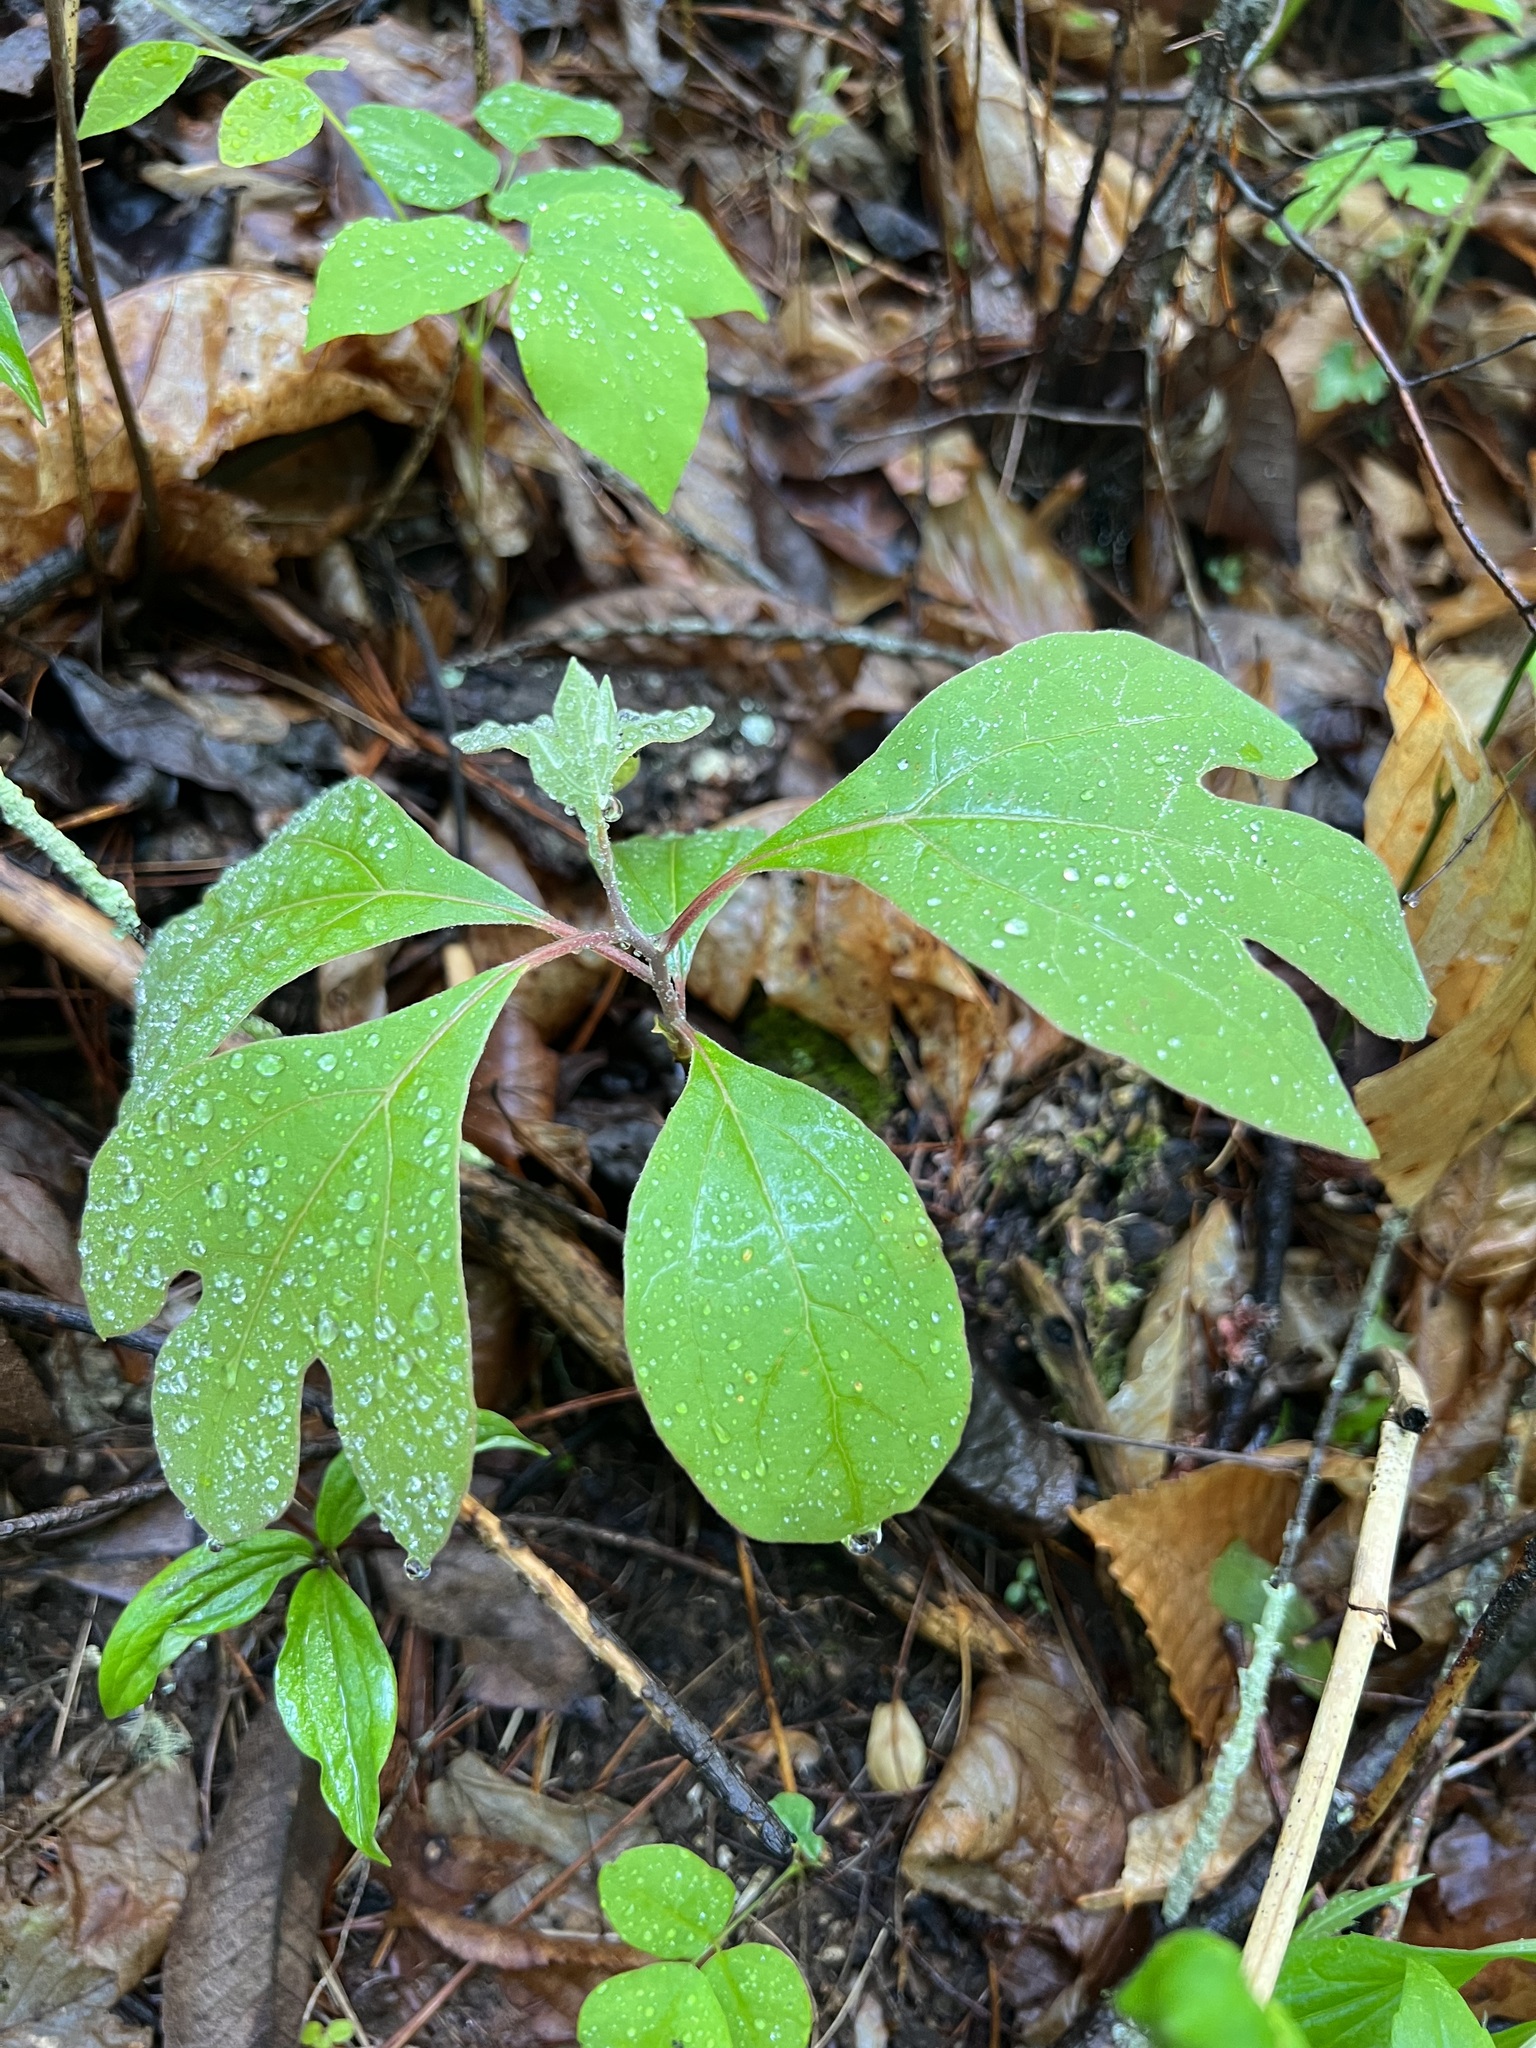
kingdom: Plantae
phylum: Tracheophyta
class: Magnoliopsida
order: Laurales
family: Lauraceae
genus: Sassafras
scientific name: Sassafras albidum
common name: Sassafras
